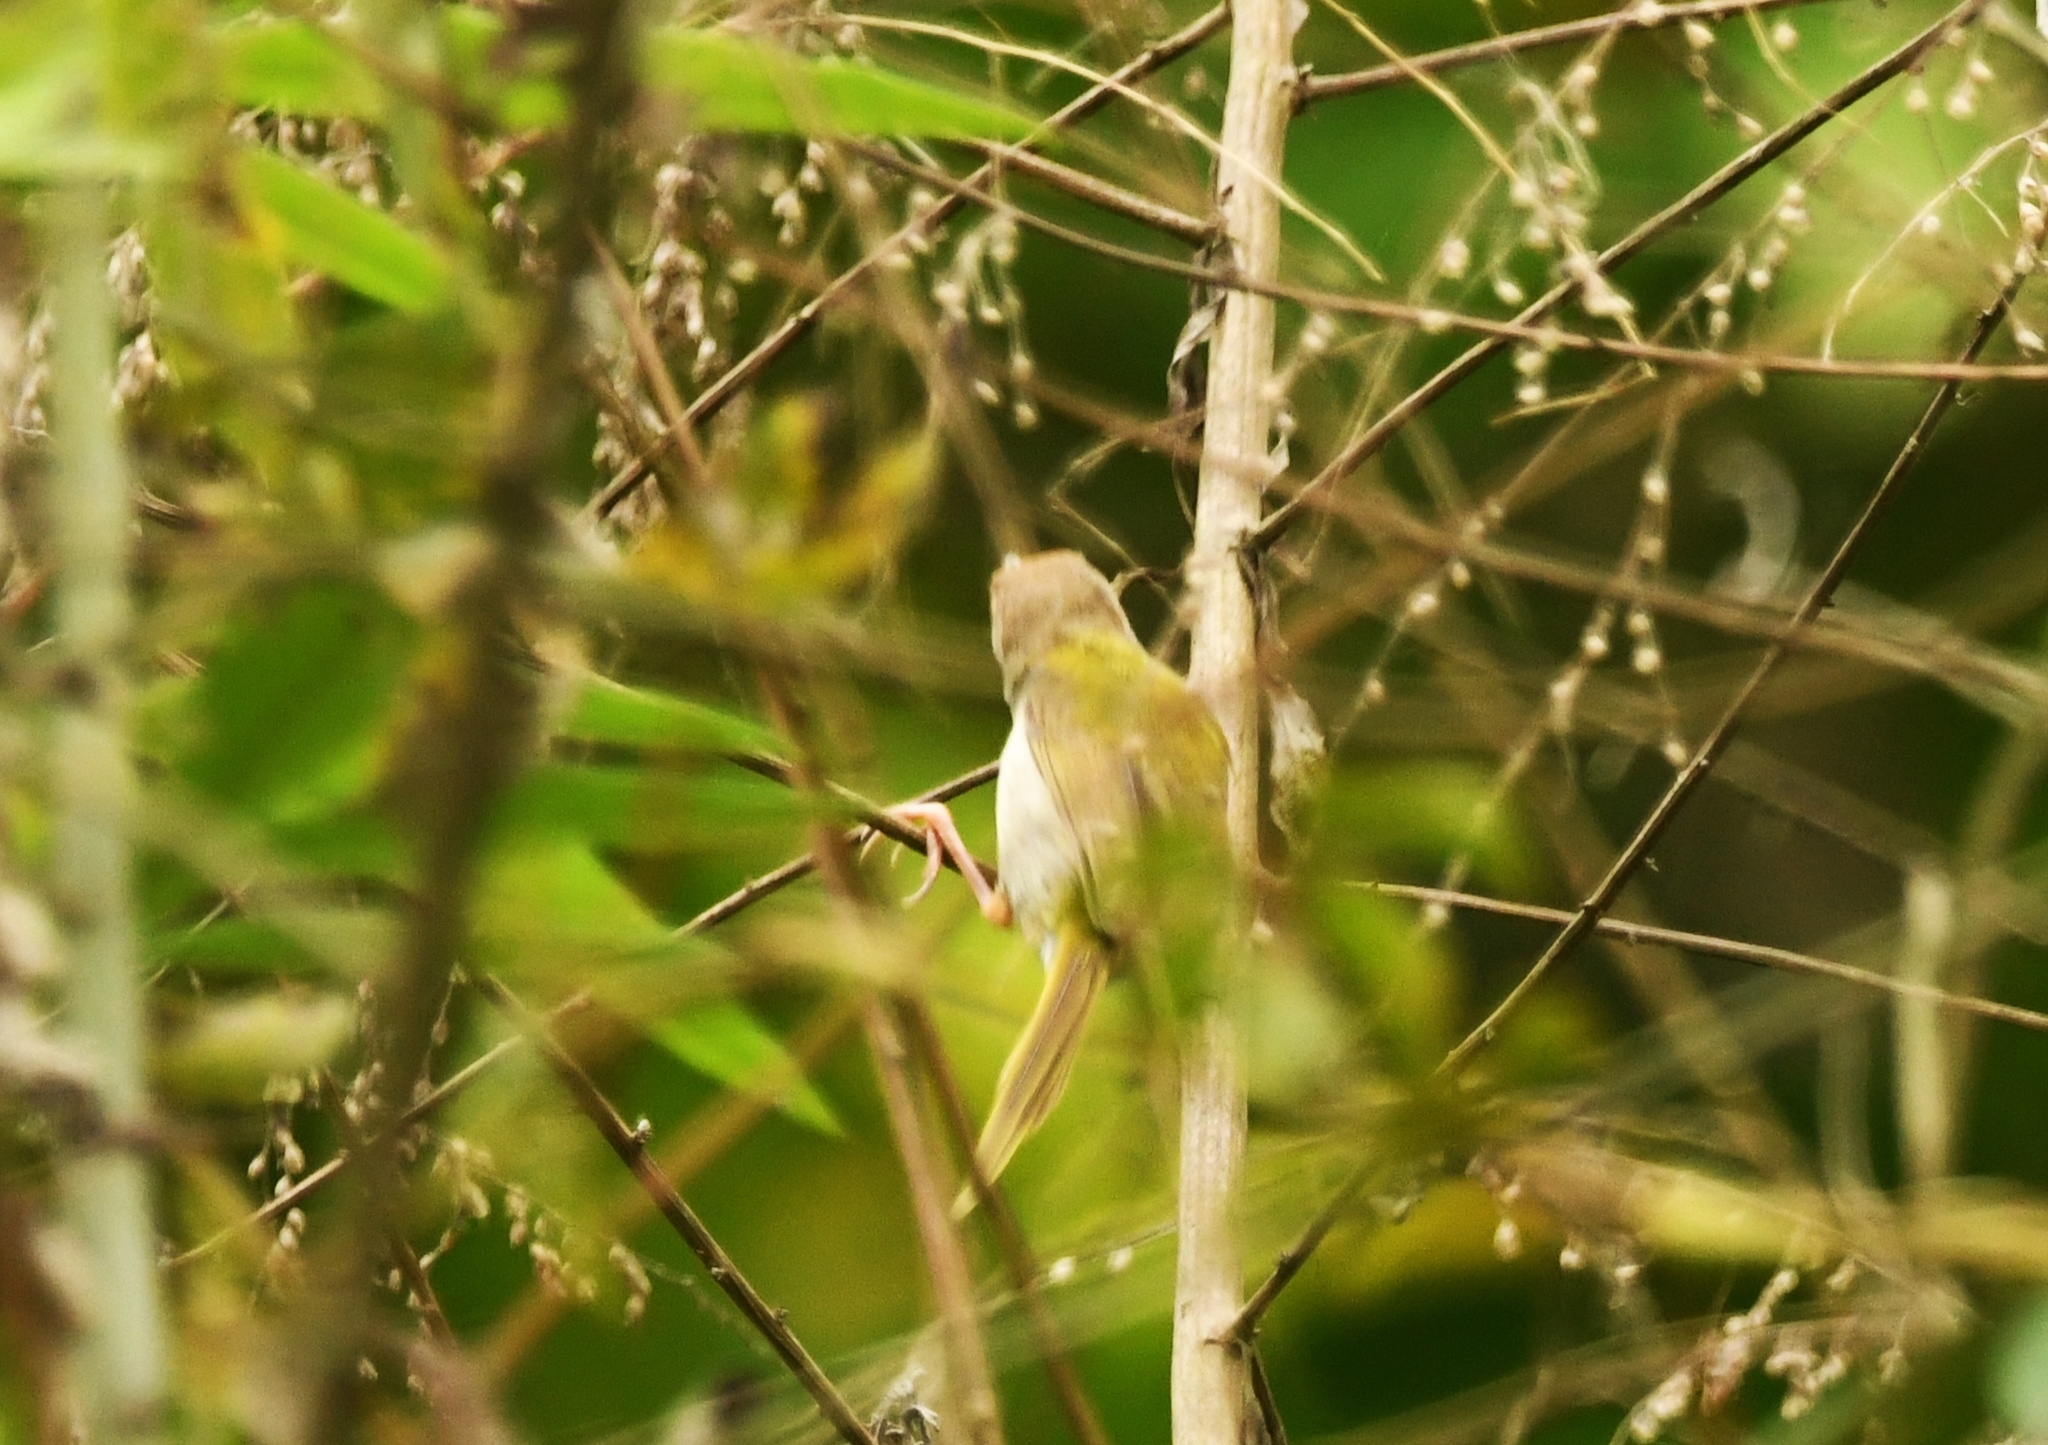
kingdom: Animalia
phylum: Chordata
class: Aves
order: Passeriformes
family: Cisticolidae
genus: Orthotomus
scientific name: Orthotomus sutorius
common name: Common tailorbird
